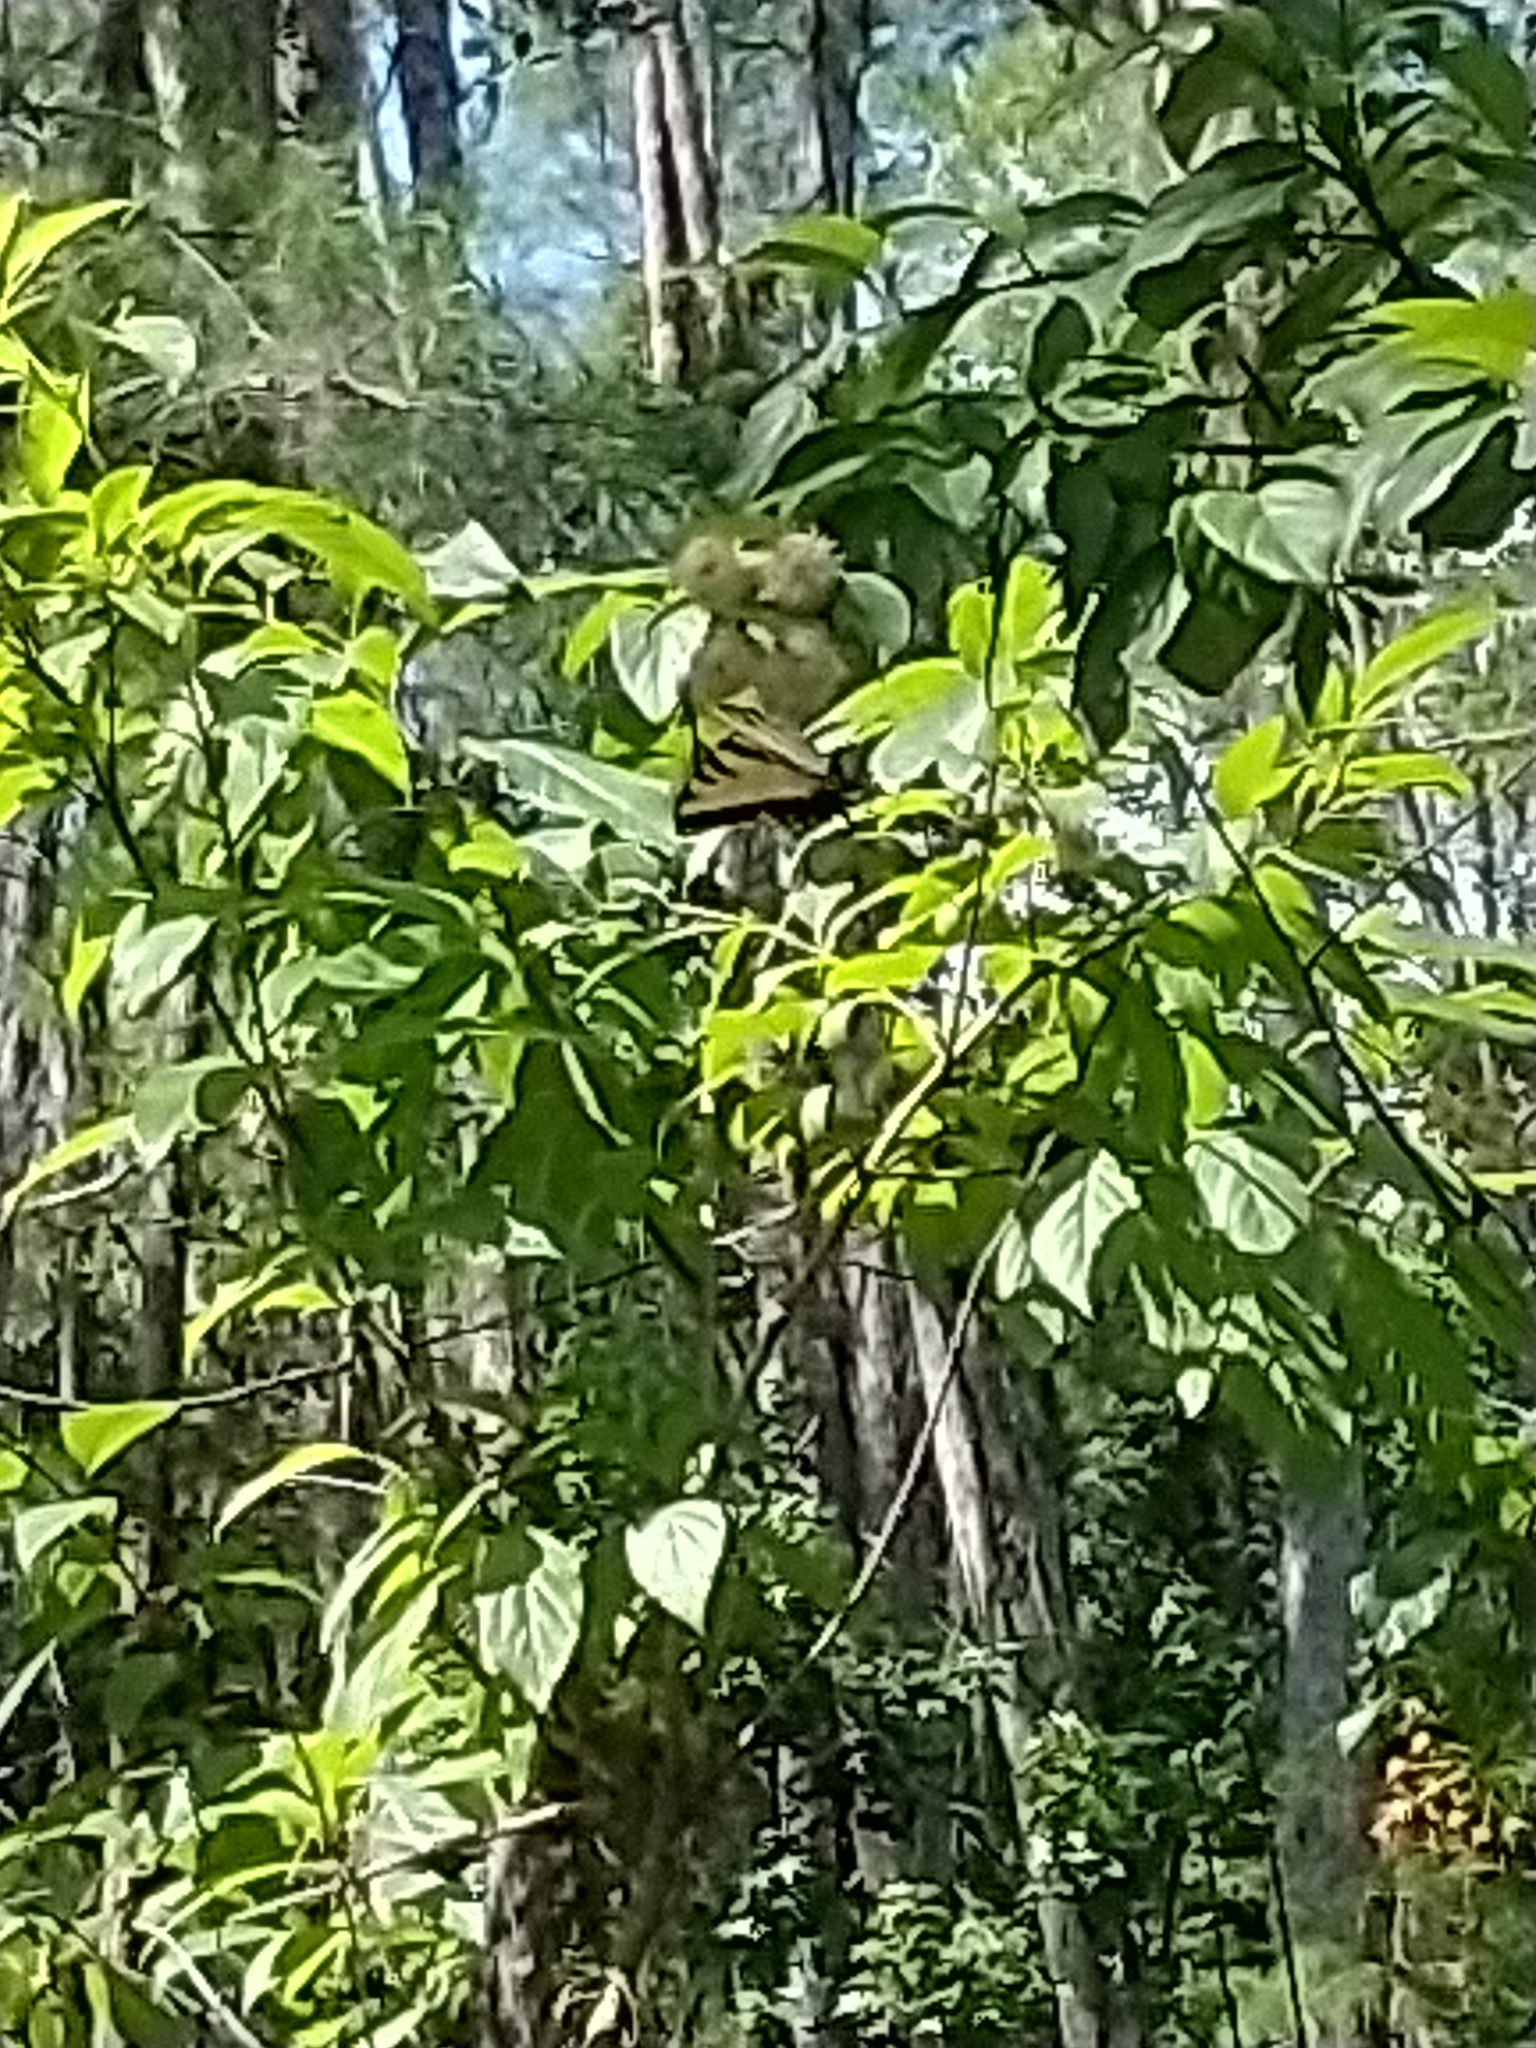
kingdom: Animalia
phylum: Arthropoda
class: Insecta
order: Lepidoptera
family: Papilionidae
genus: Papilio
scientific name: Papilio glaucus
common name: Tiger swallowtail
